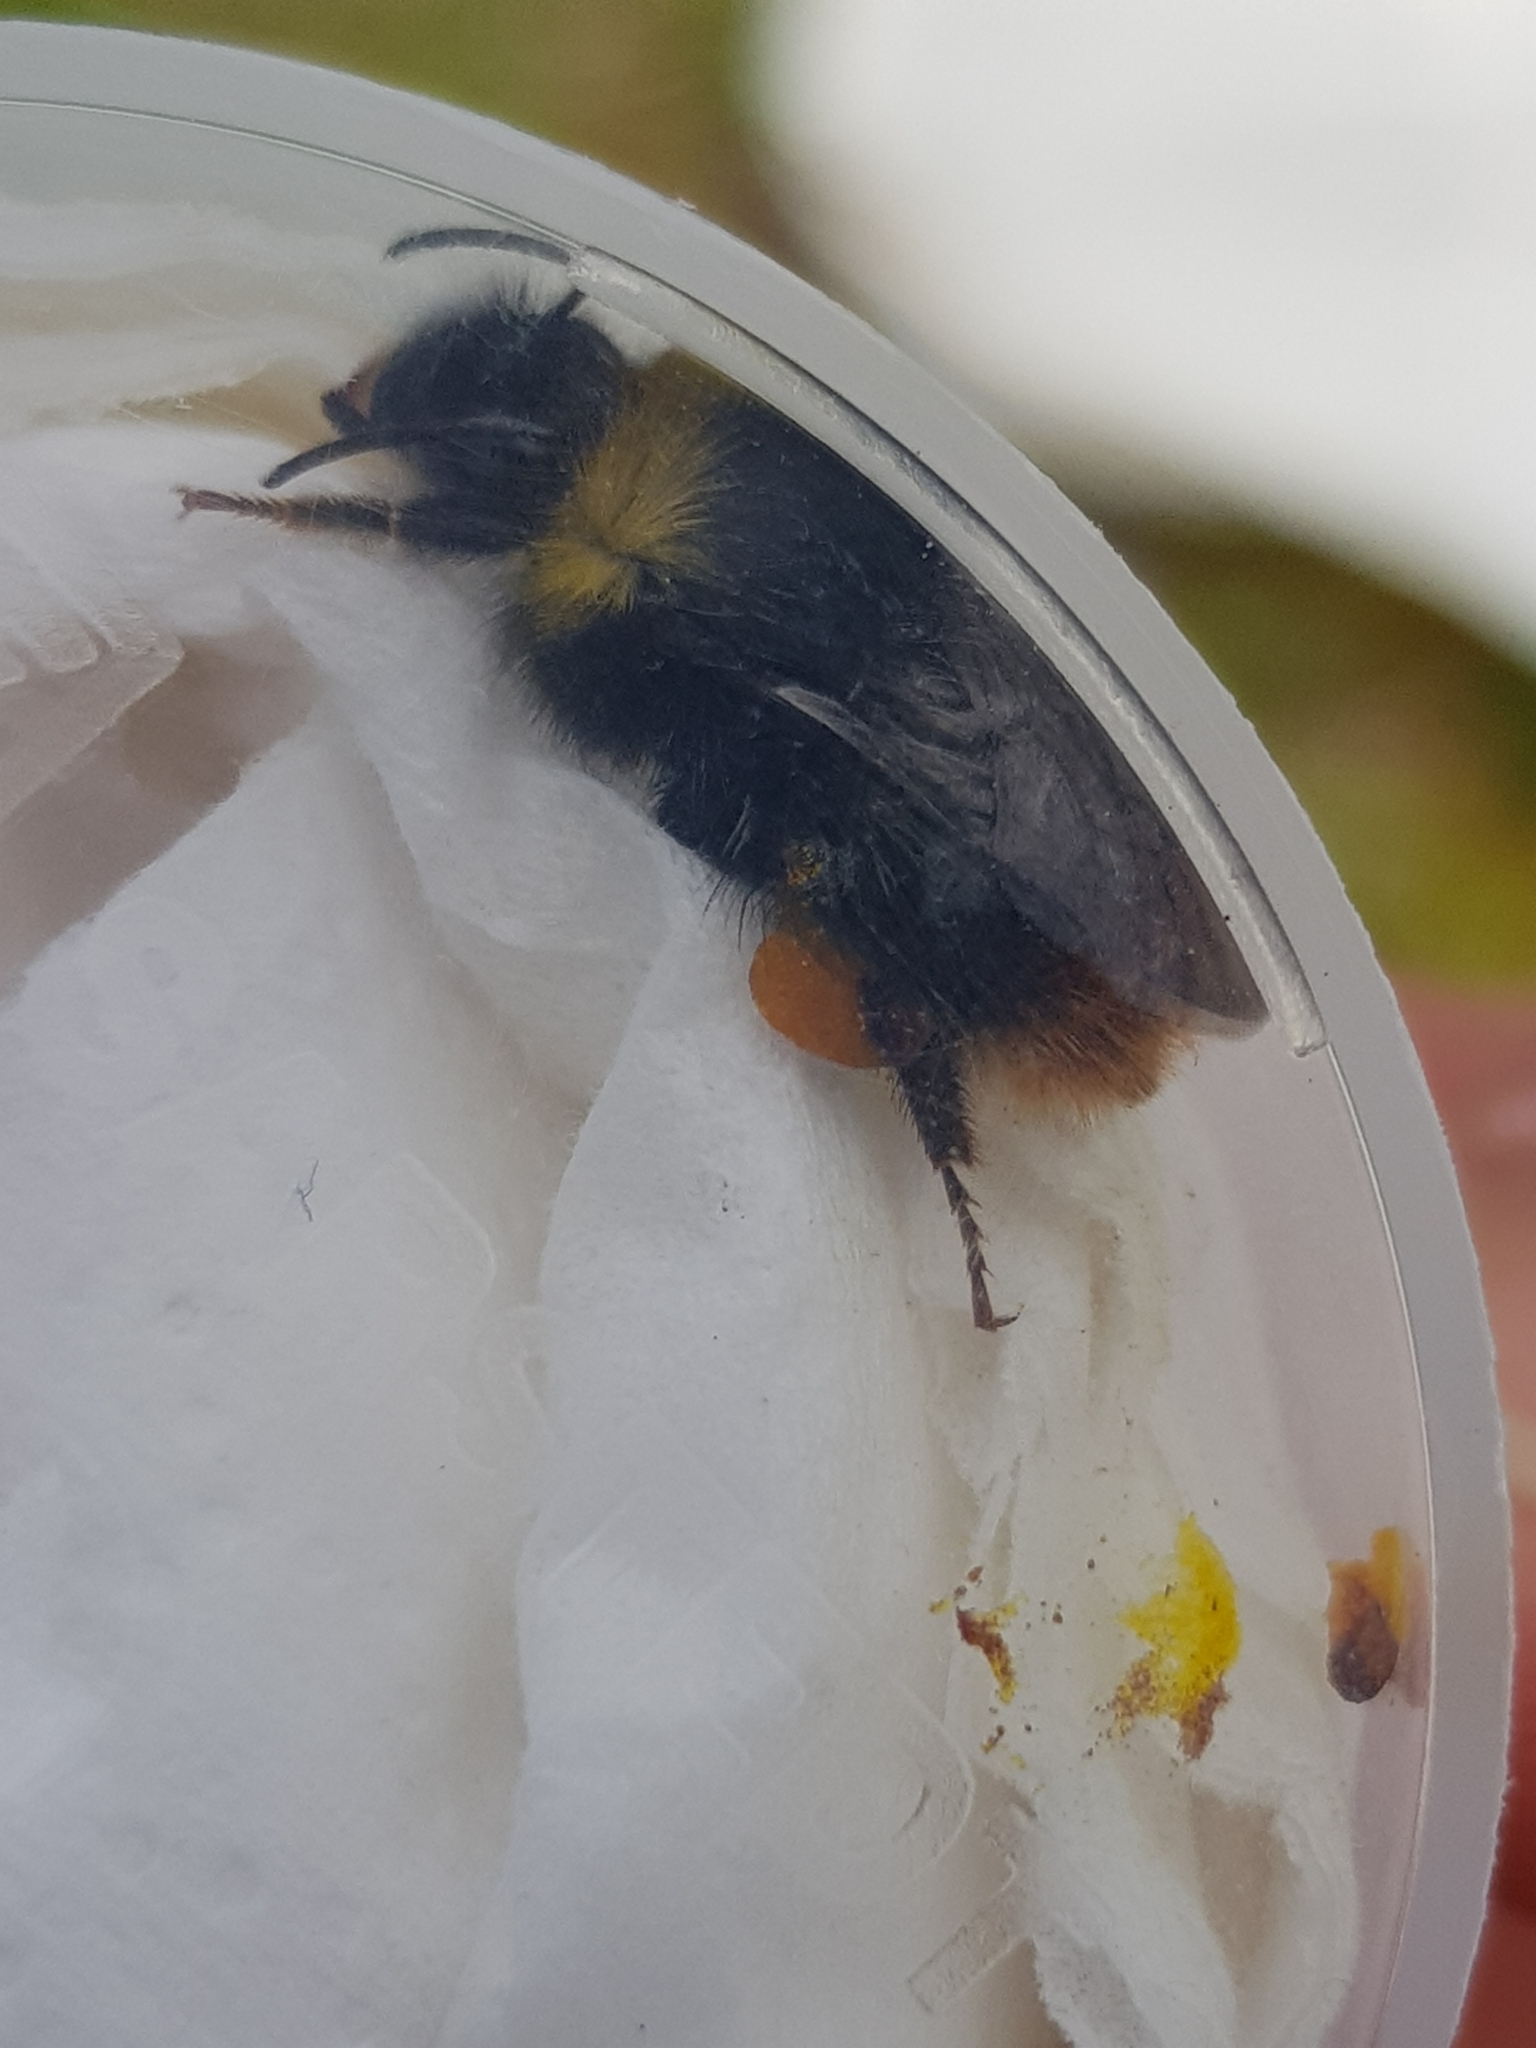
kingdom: Animalia
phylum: Arthropoda
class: Insecta
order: Hymenoptera
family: Apidae
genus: Bombus
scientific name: Bombus pratorum
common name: Early humble-bee
